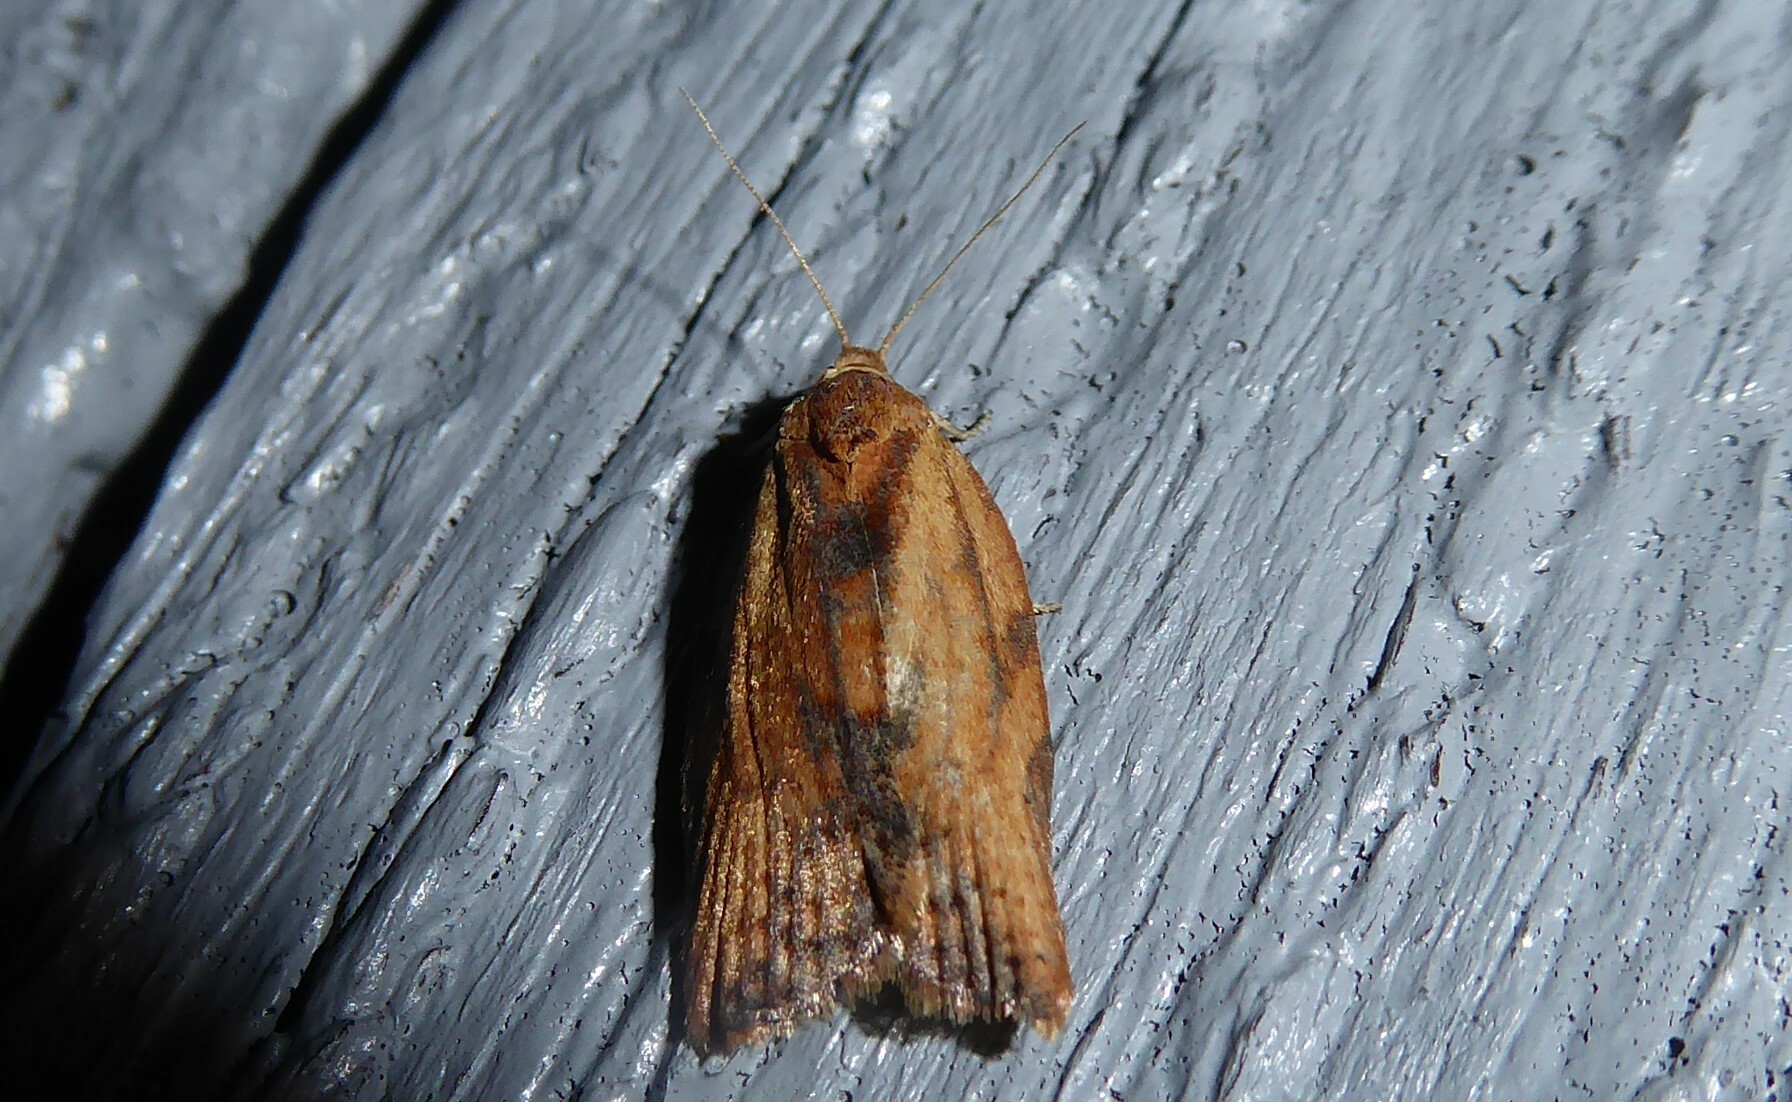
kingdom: Animalia
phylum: Arthropoda
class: Insecta
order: Lepidoptera
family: Tortricidae
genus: Epiphyas
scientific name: Epiphyas postvittana
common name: Light brown apple moth
